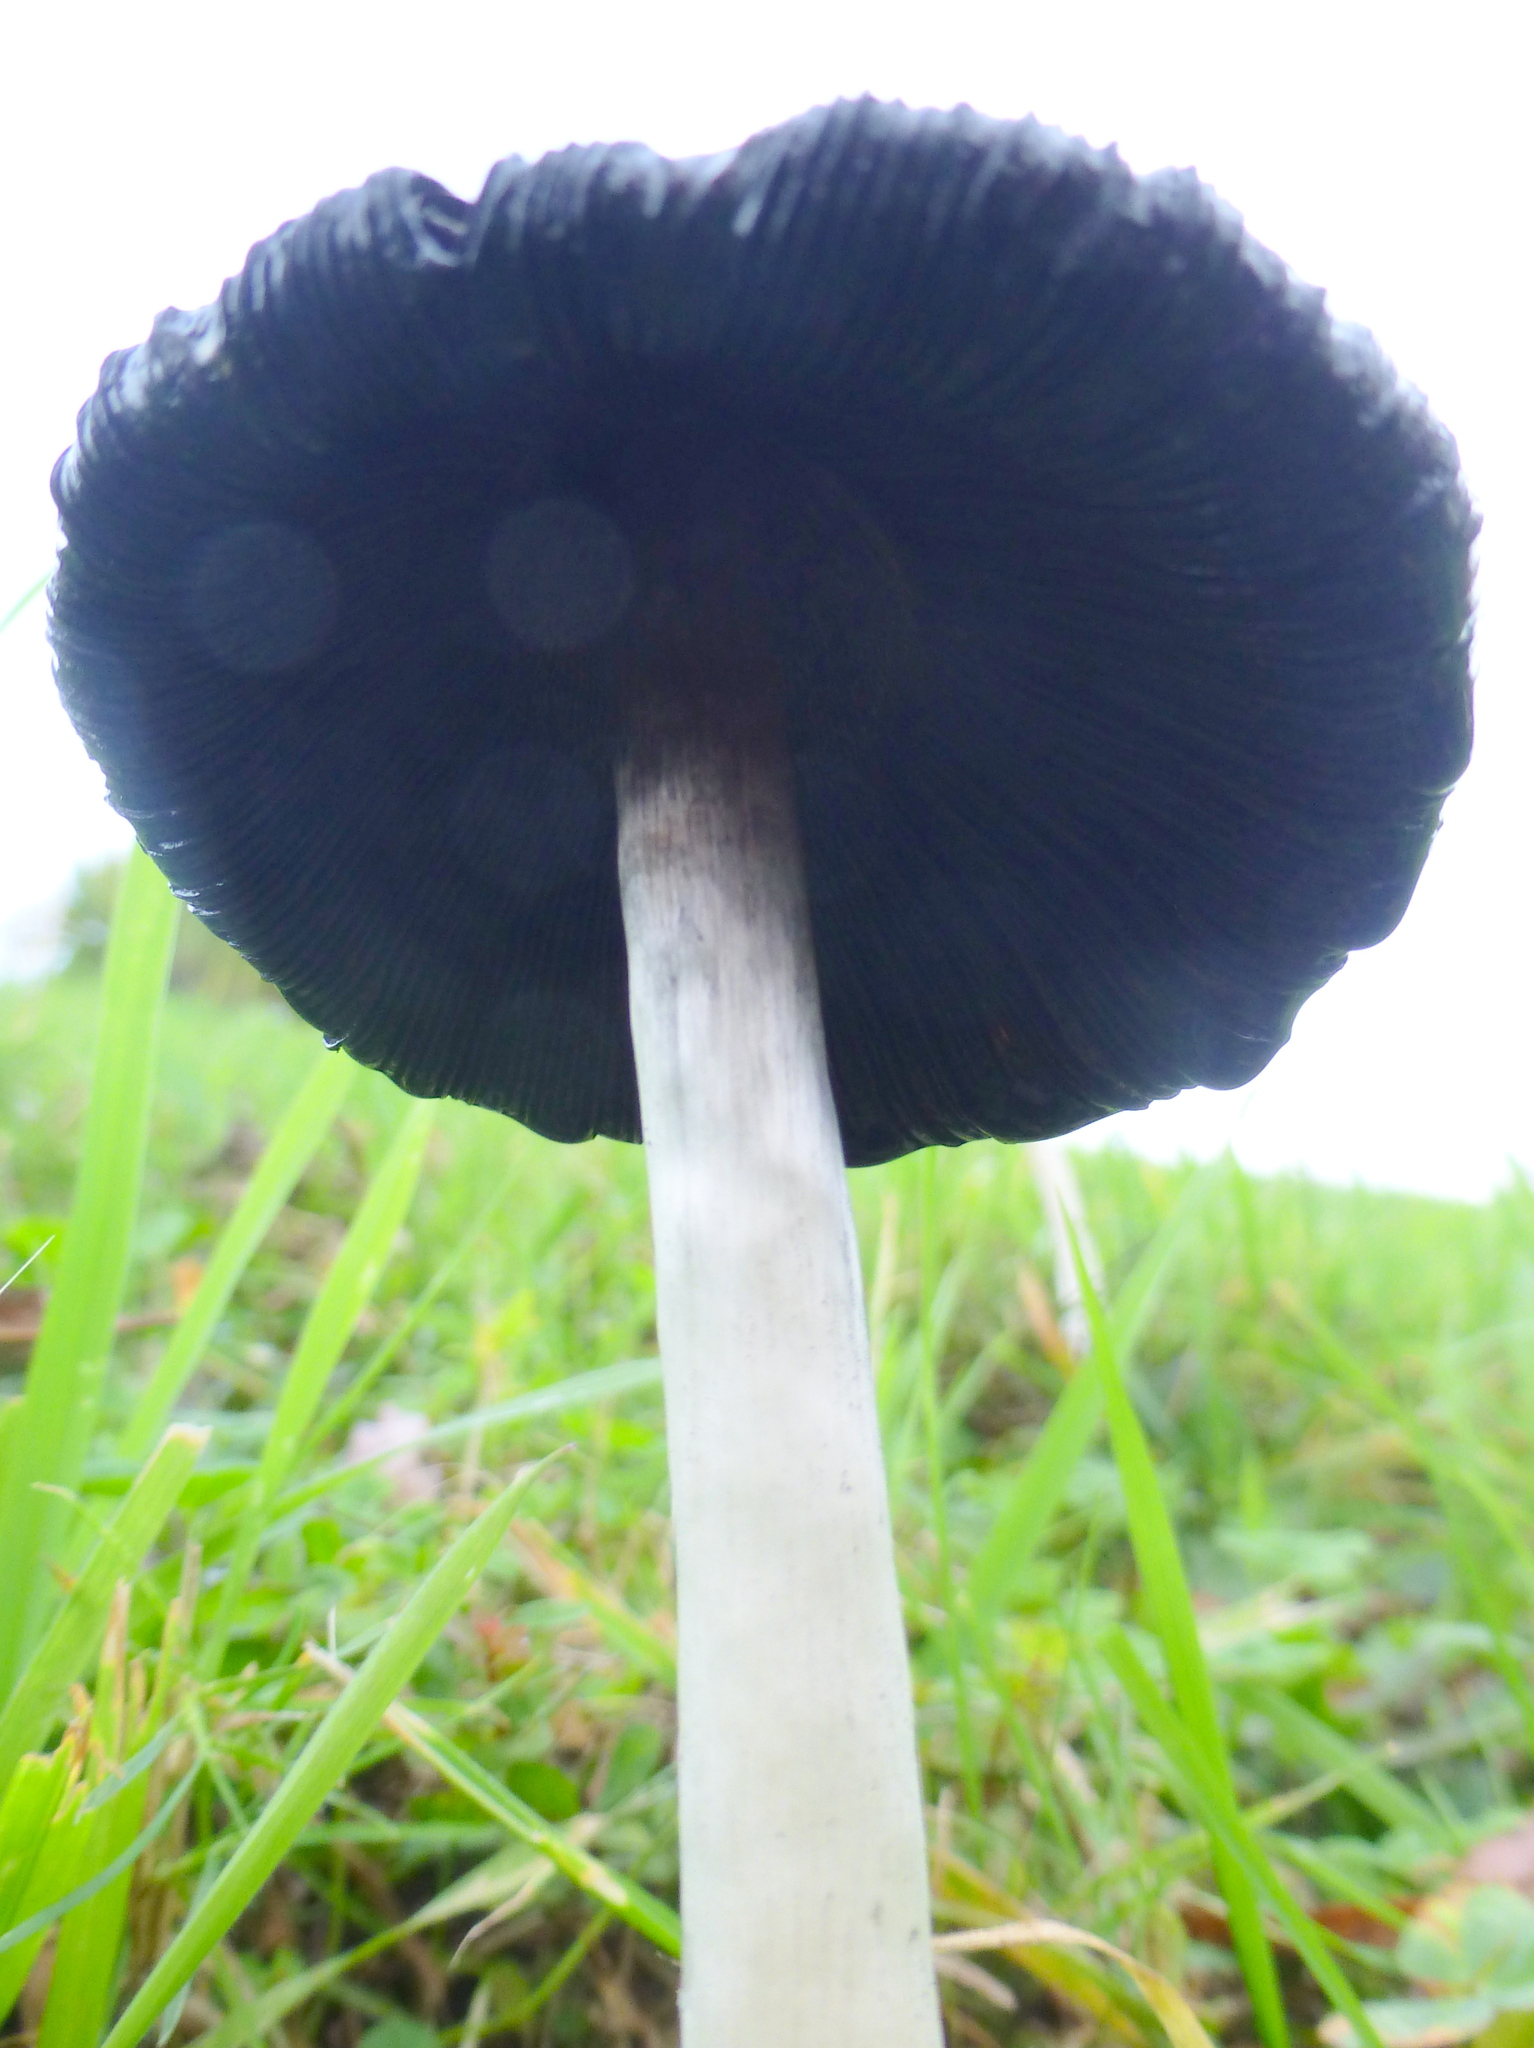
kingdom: Fungi
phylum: Basidiomycota
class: Agaricomycetes
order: Agaricales
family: Agaricaceae
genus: Coprinus
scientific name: Coprinus comatus
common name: Lawyer's wig
